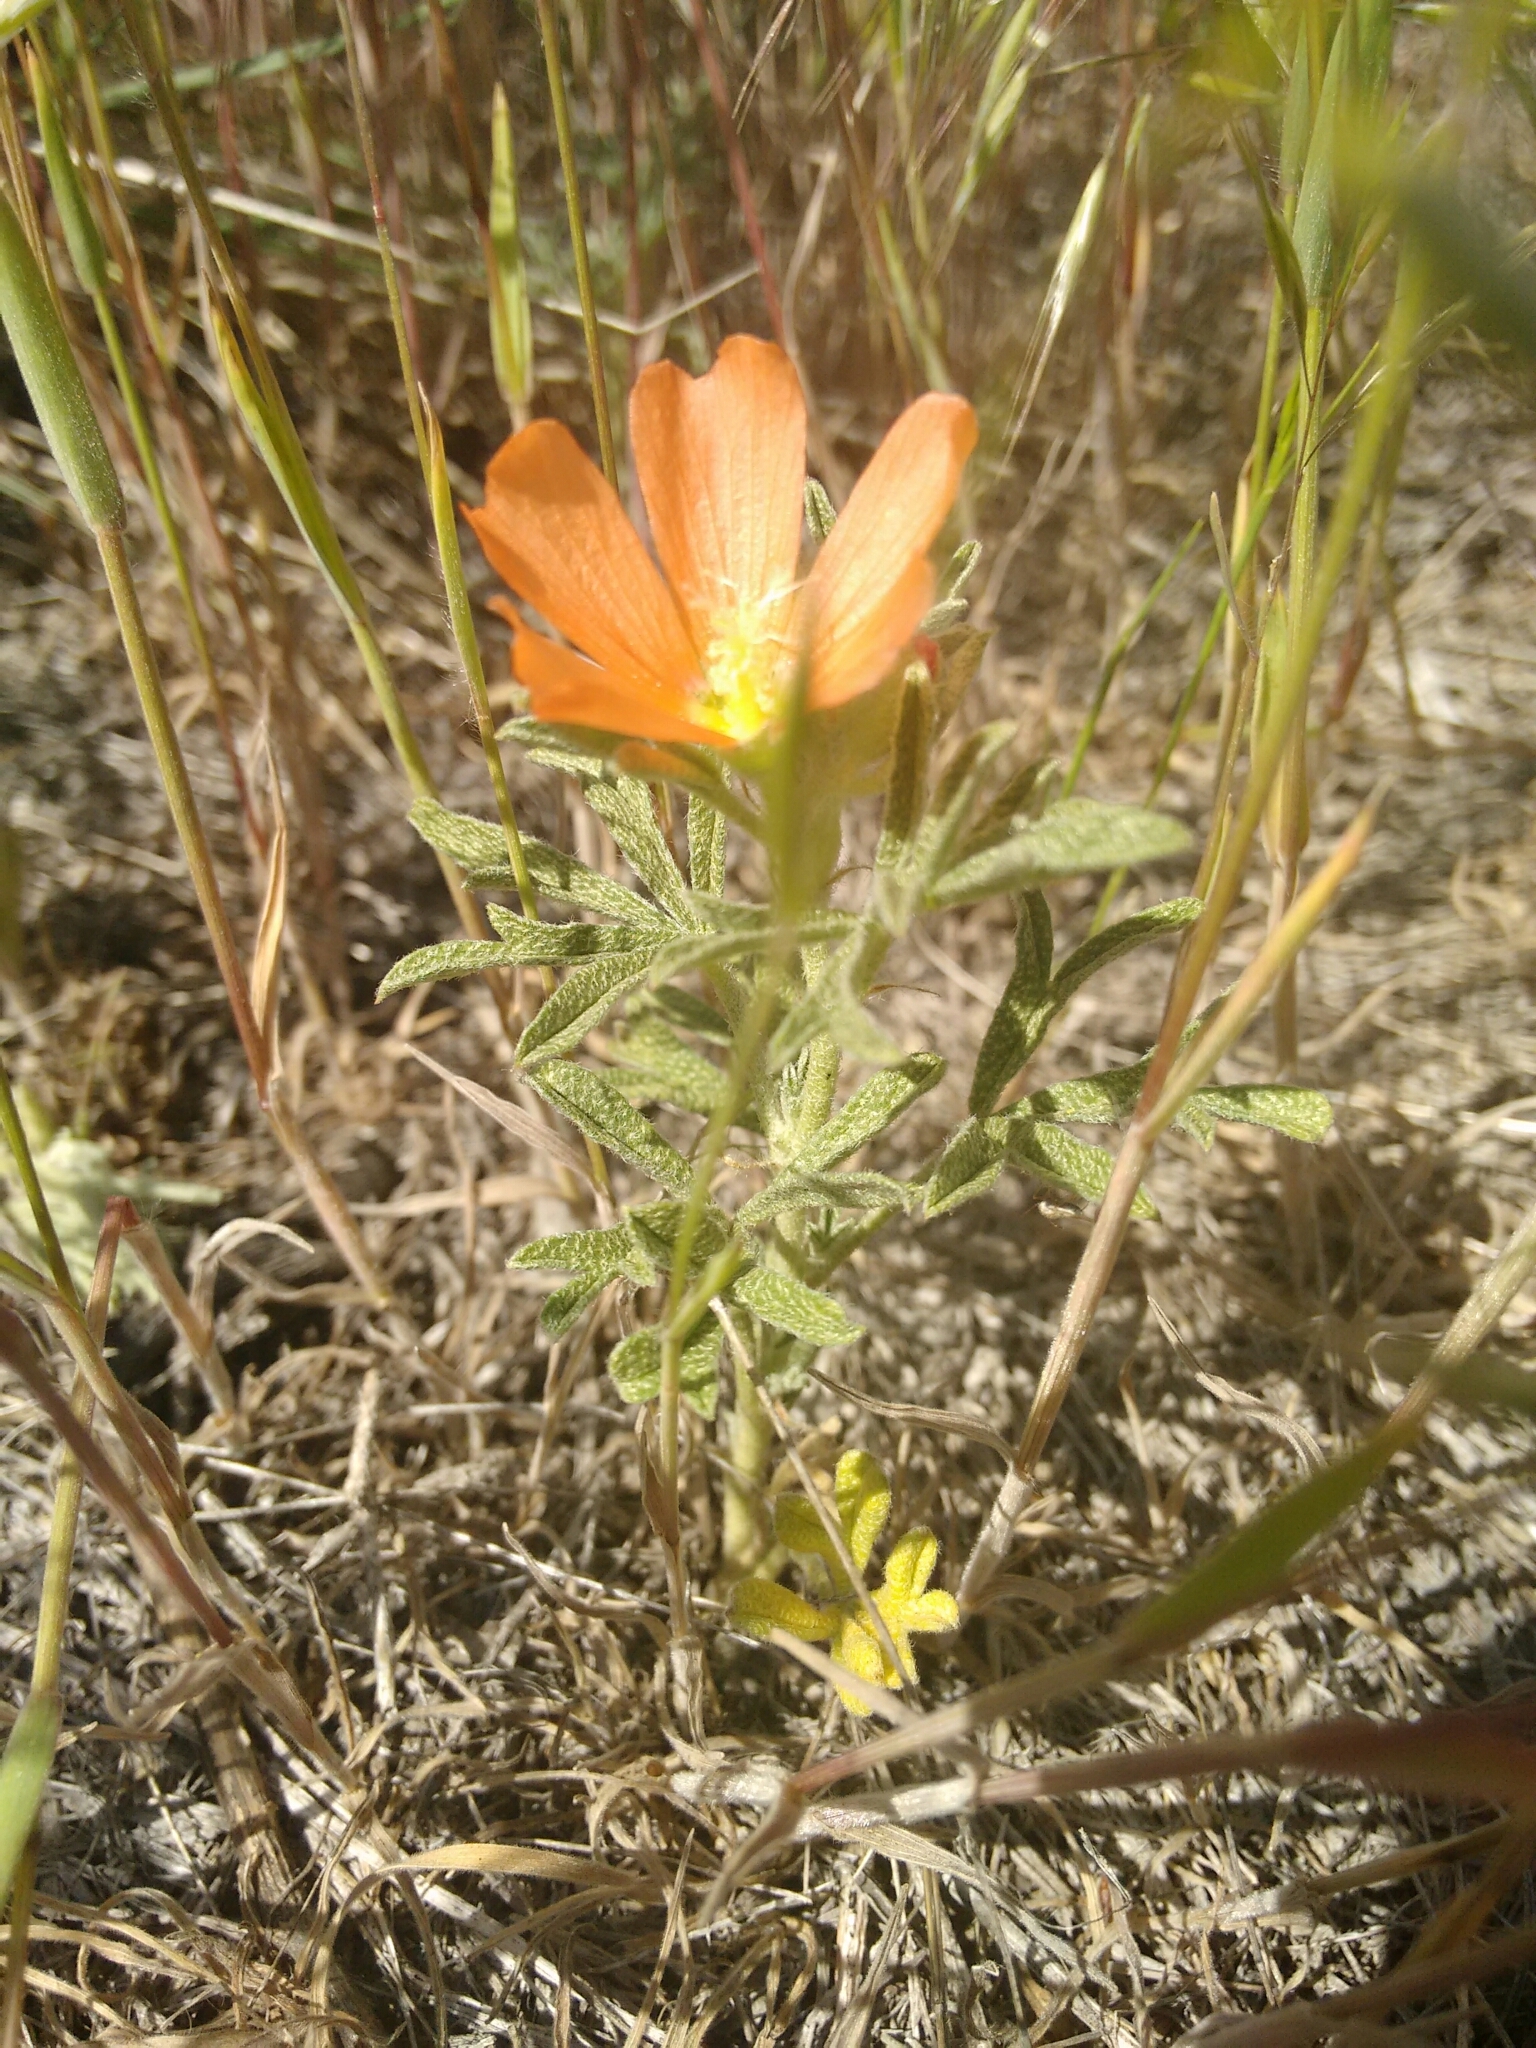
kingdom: Plantae
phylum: Tracheophyta
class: Magnoliopsida
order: Malvales
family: Malvaceae
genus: Sphaeralcea
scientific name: Sphaeralcea coccinea
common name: Moss-rose
